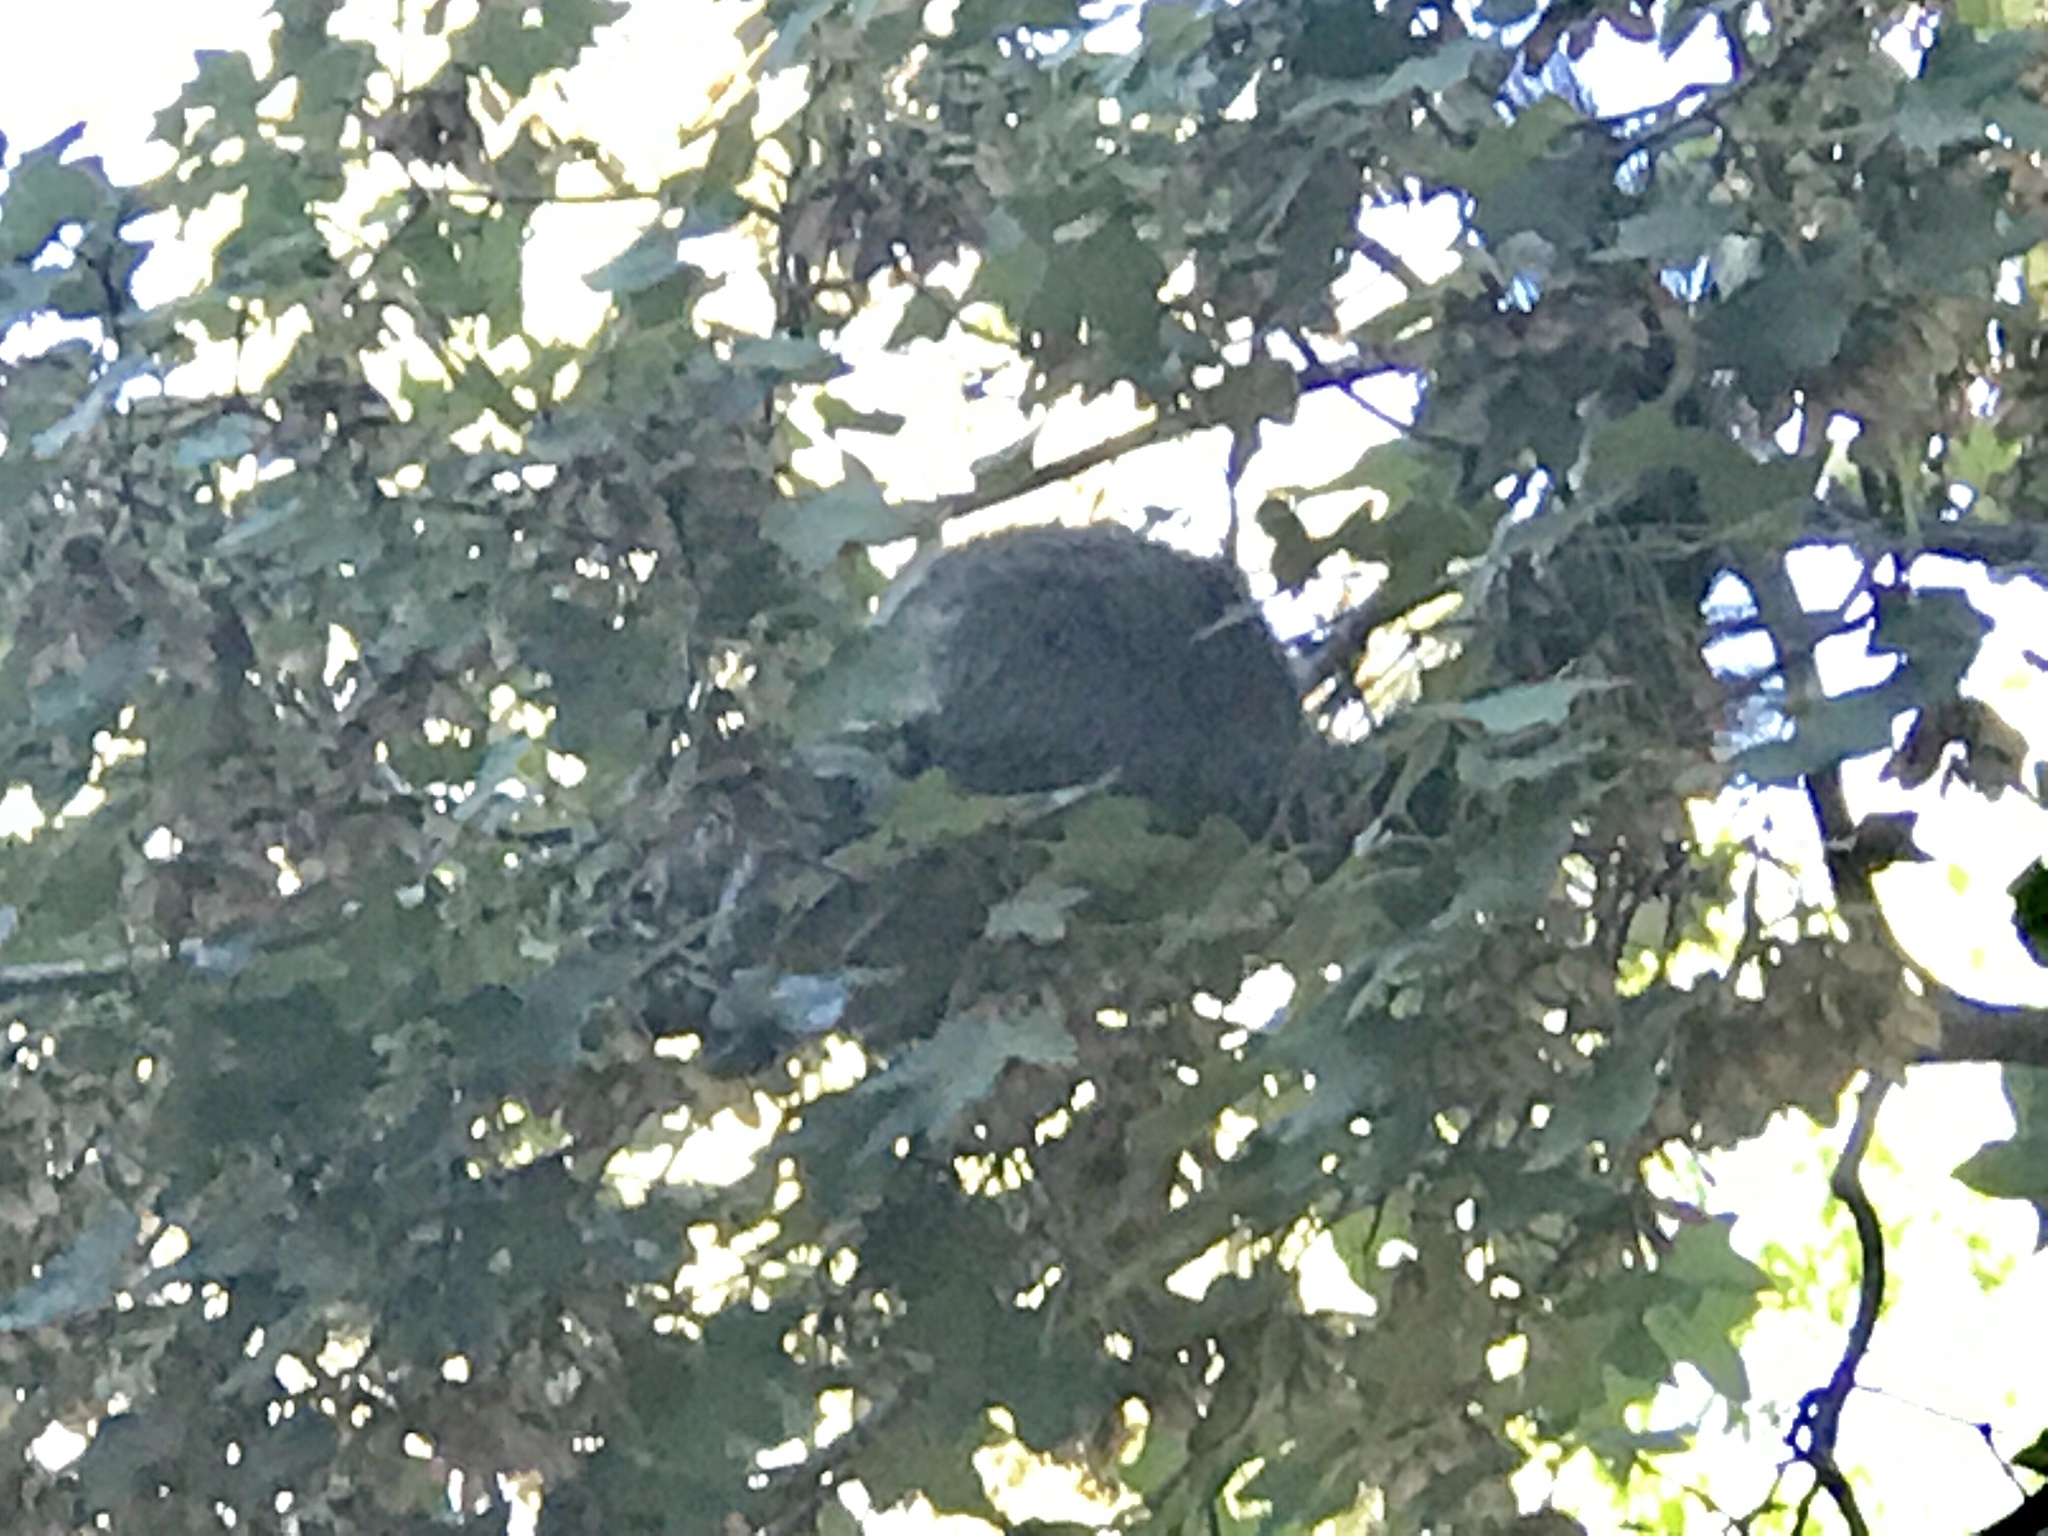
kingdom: Animalia
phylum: Chordata
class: Mammalia
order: Rodentia
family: Sciuridae
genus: Sciurus
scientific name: Sciurus arizonensis
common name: Arizona gray squirrel
